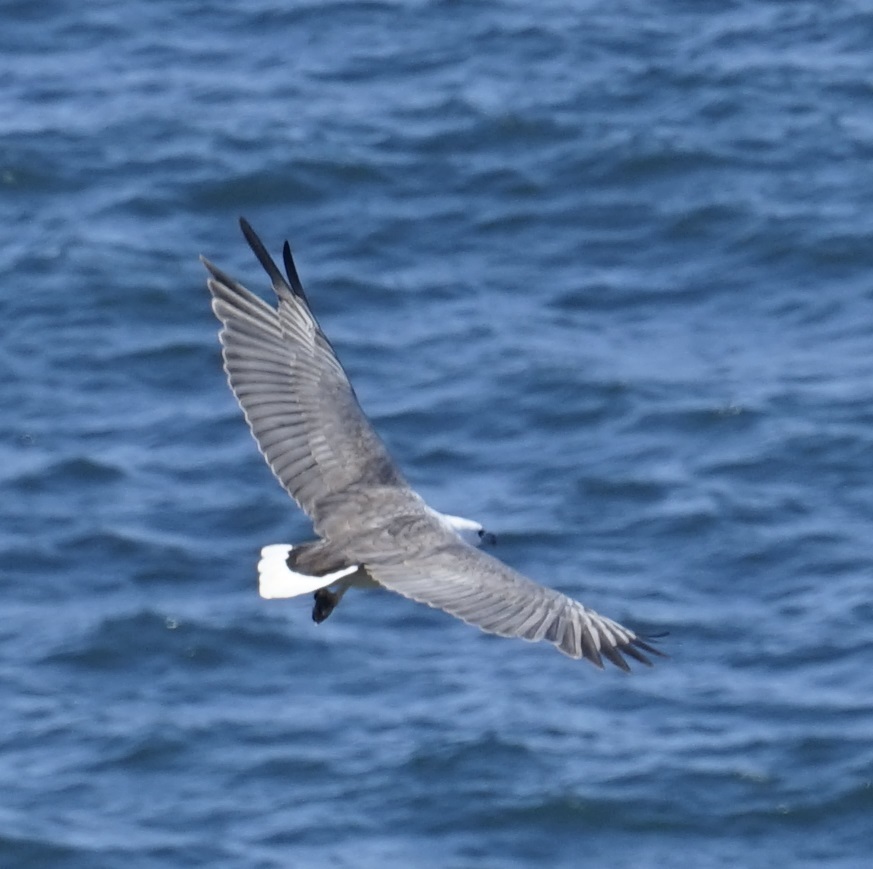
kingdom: Animalia
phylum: Chordata
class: Aves
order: Accipitriformes
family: Accipitridae
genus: Haliaeetus
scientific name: Haliaeetus leucogaster
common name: White-bellied sea eagle
